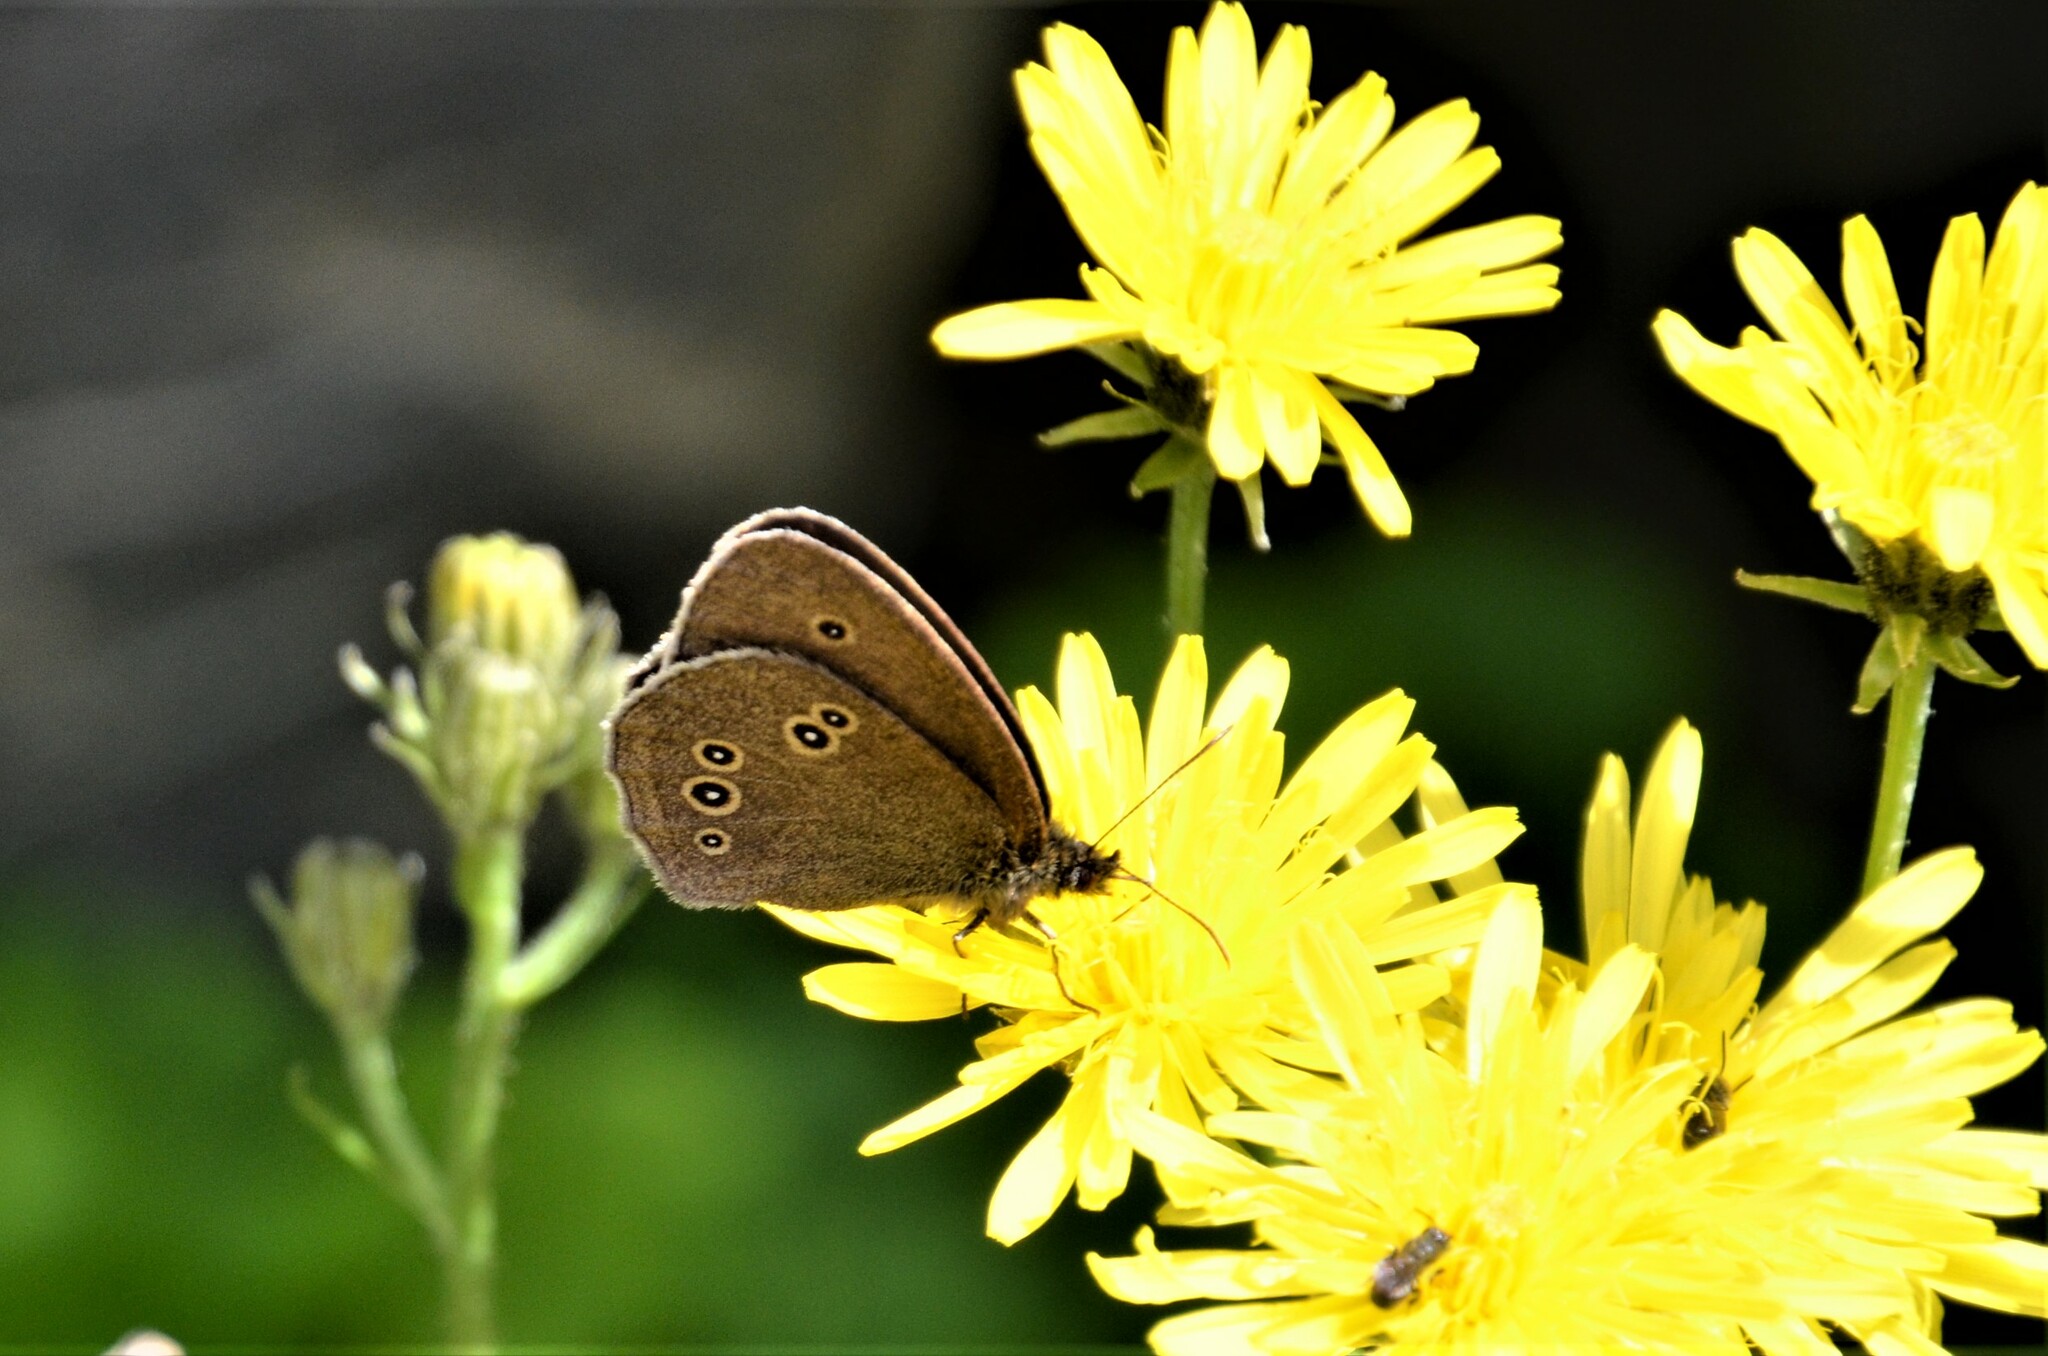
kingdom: Animalia
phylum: Arthropoda
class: Insecta
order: Lepidoptera
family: Nymphalidae
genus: Aphantopus
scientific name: Aphantopus hyperantus
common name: Ringlet
